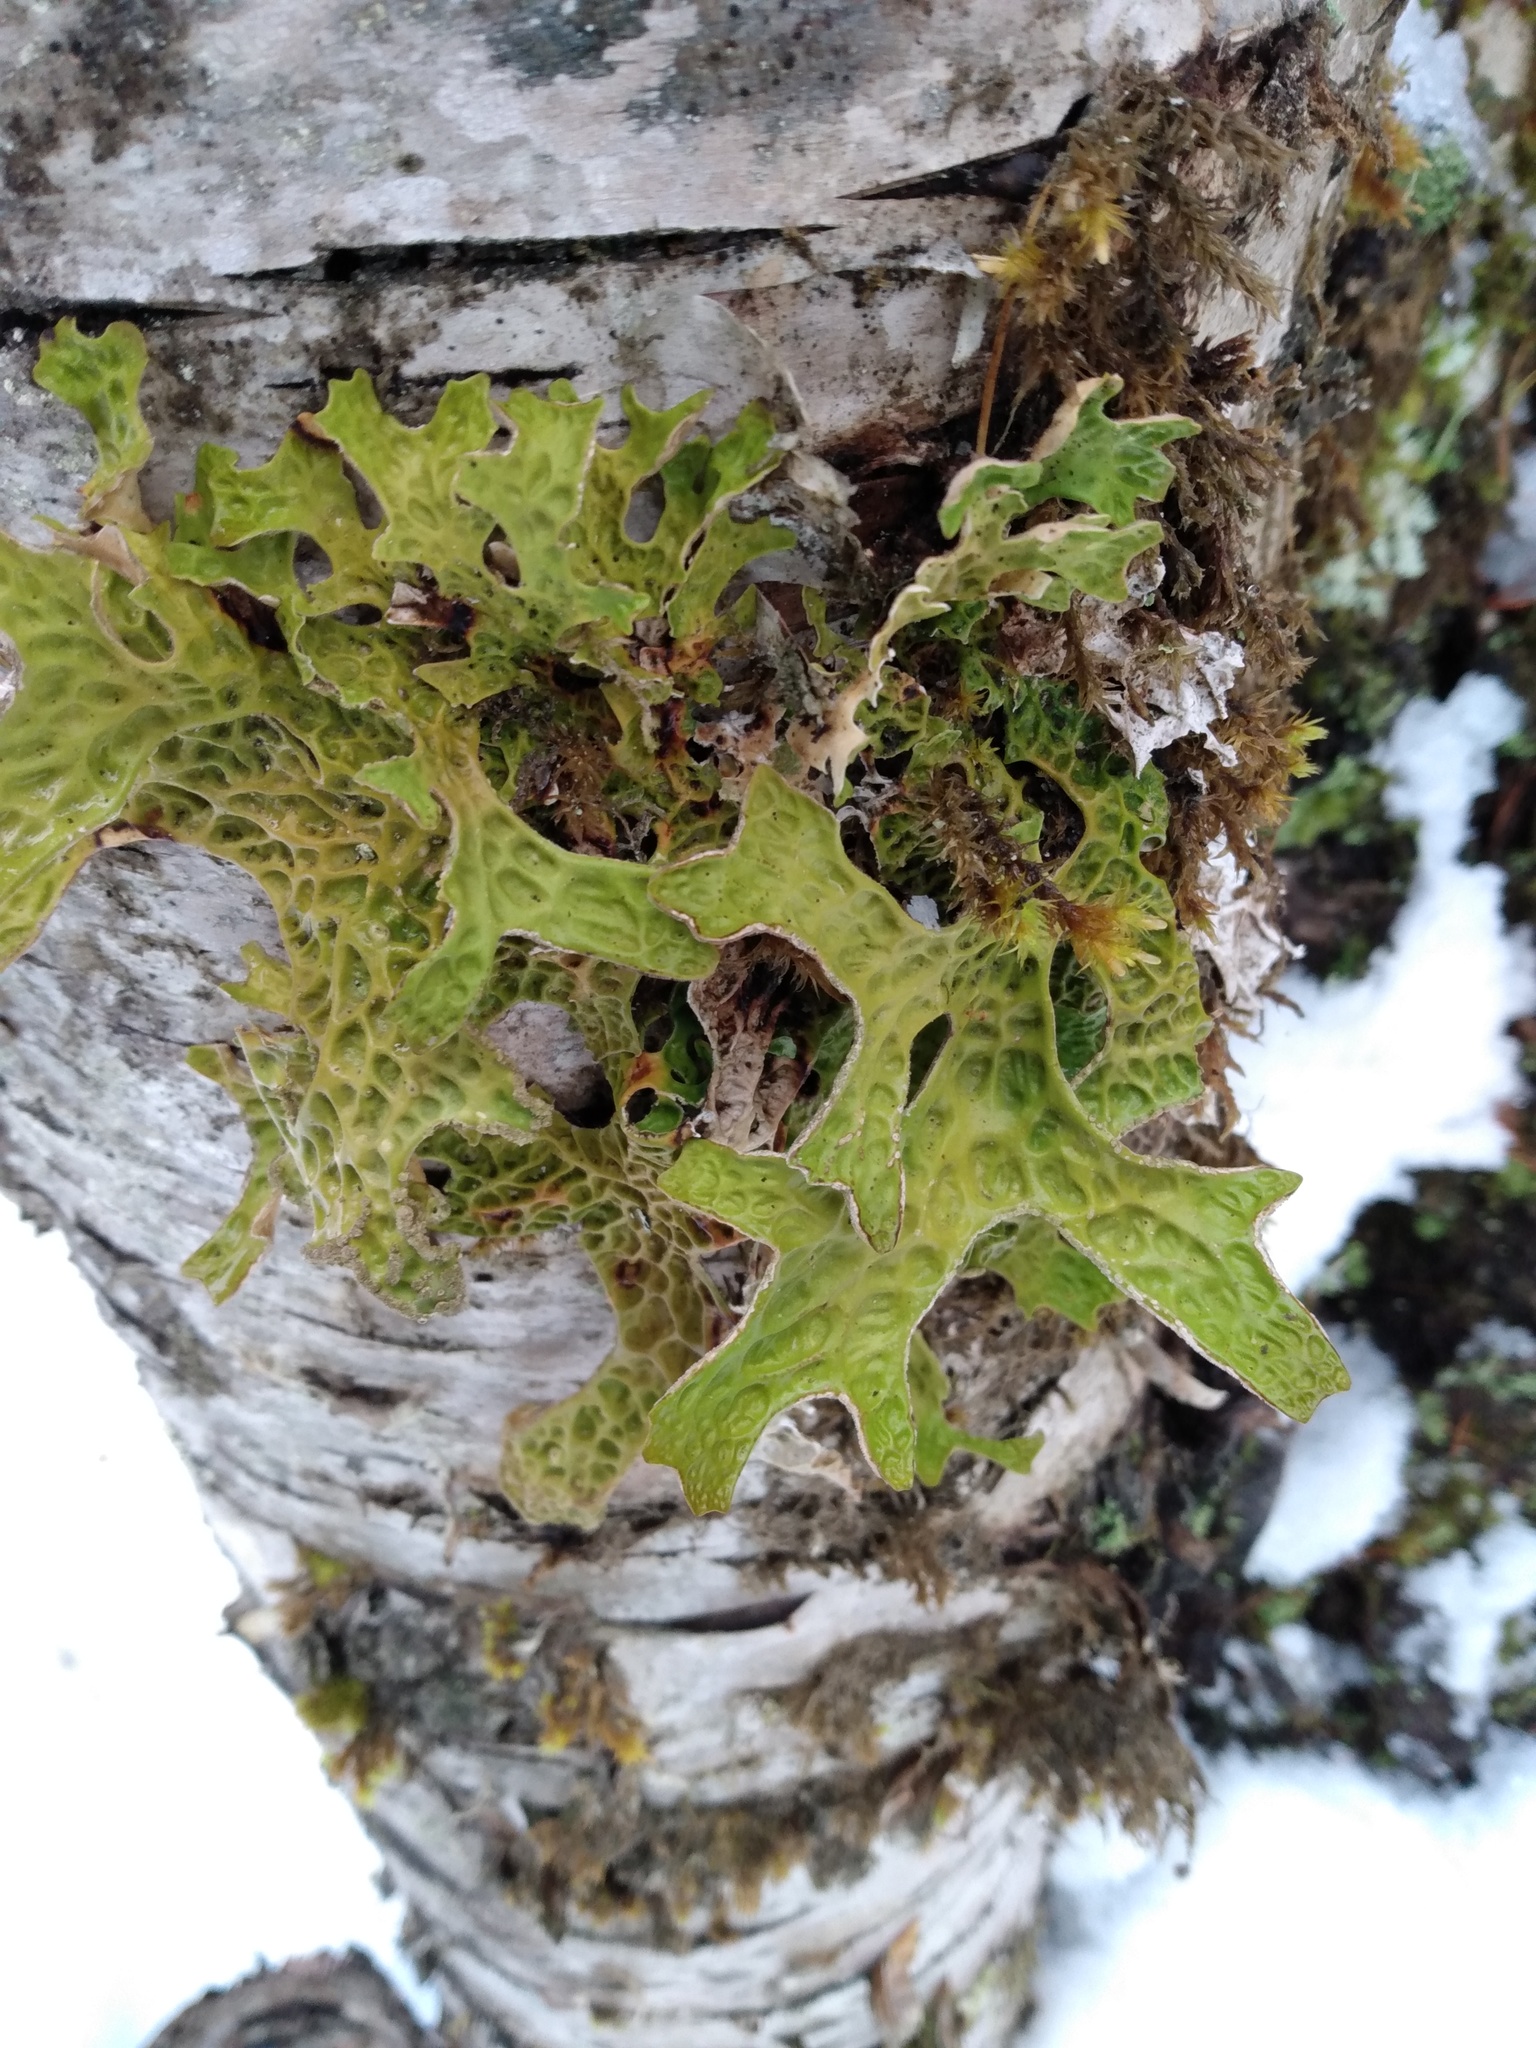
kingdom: Fungi
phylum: Ascomycota
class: Lecanoromycetes
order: Peltigerales
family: Lobariaceae
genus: Lobaria
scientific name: Lobaria pulmonaria
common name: Lungwort
